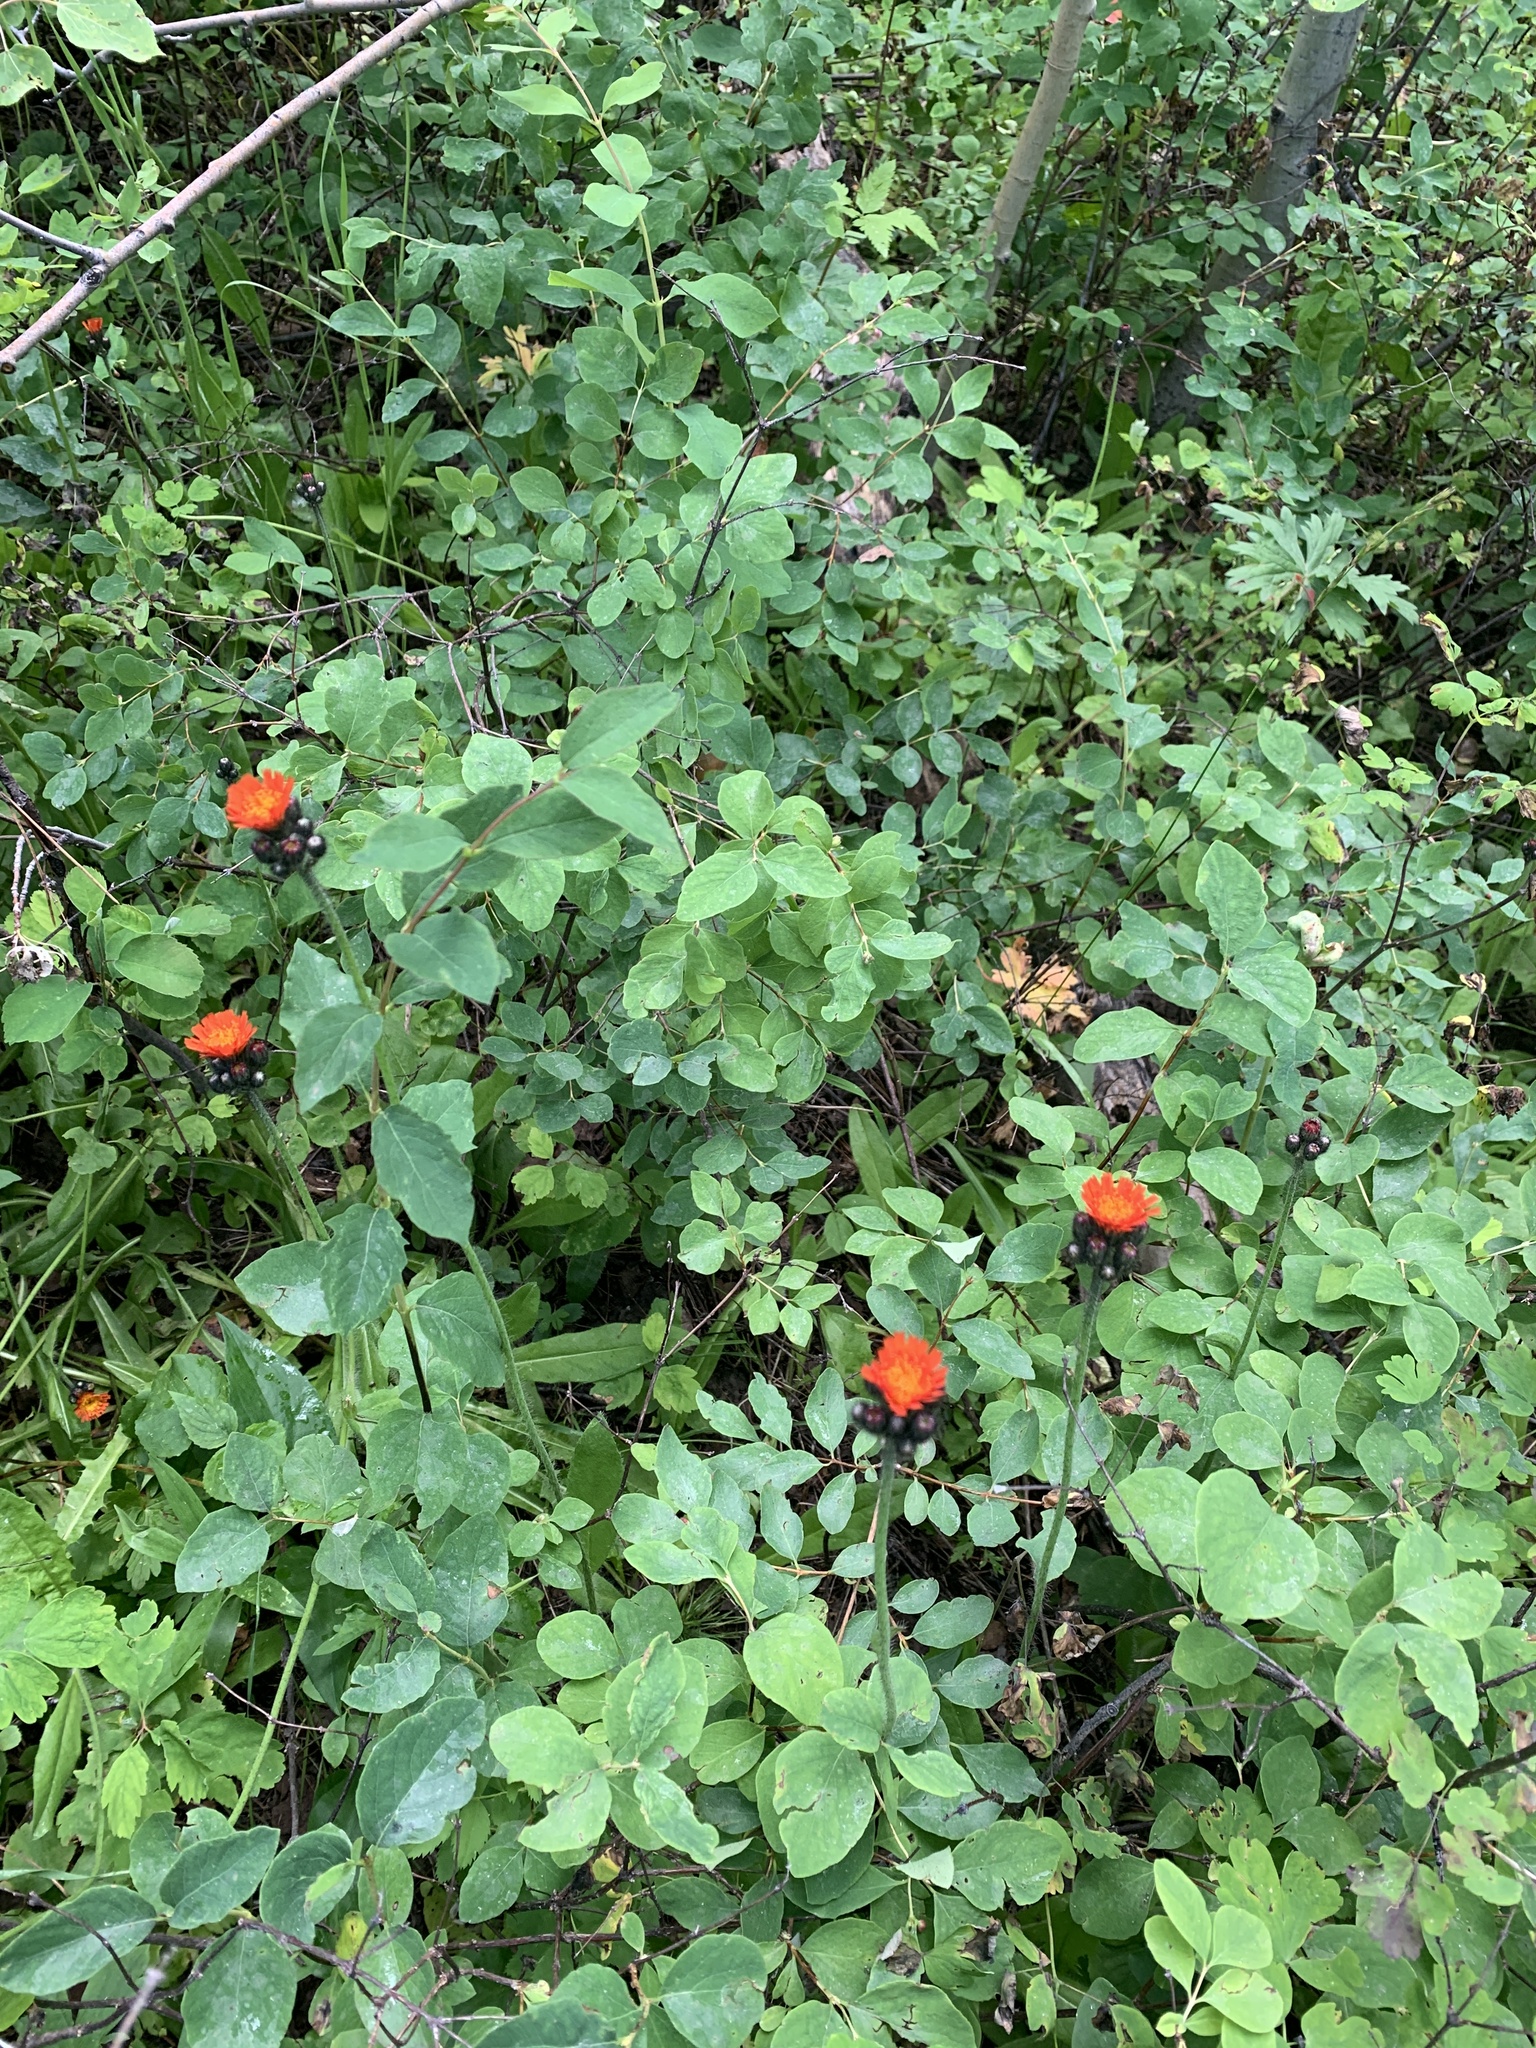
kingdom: Plantae
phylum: Tracheophyta
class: Magnoliopsida
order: Asterales
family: Asteraceae
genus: Pilosella
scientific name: Pilosella aurantiaca
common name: Fox-and-cubs
